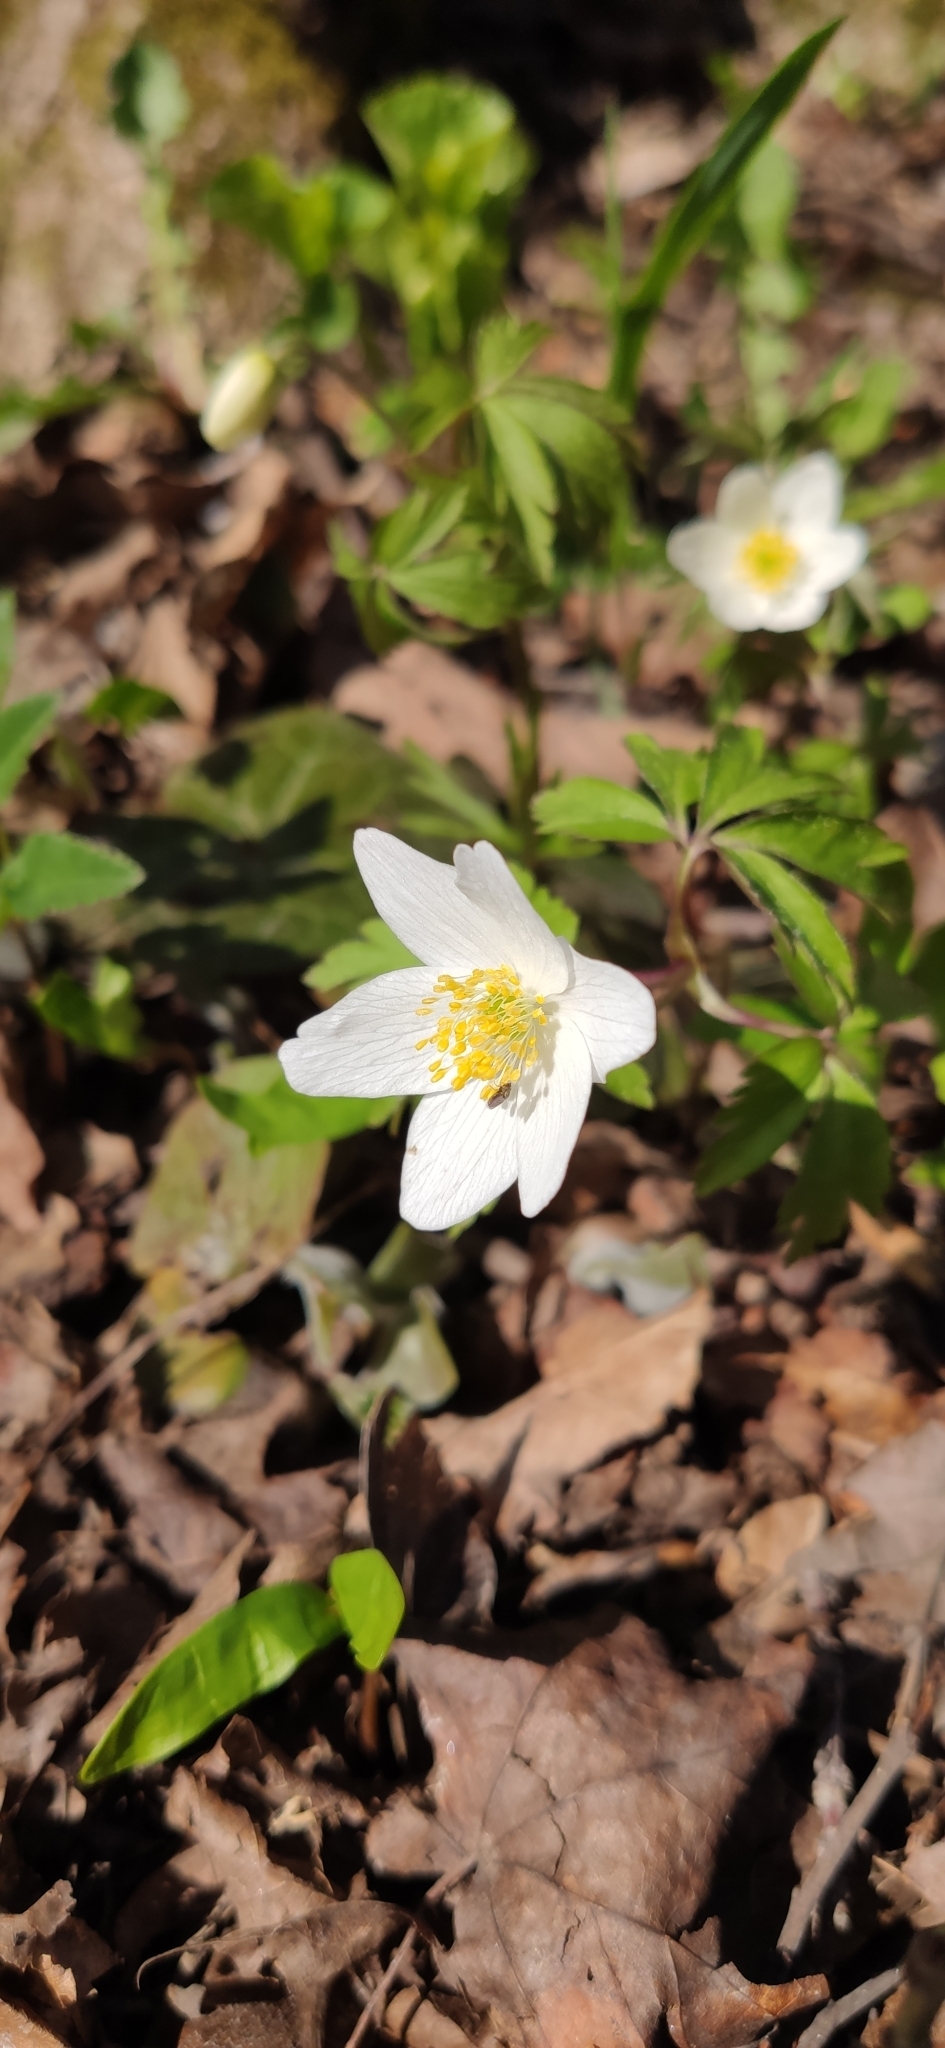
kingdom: Plantae
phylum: Tracheophyta
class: Magnoliopsida
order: Ranunculales
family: Ranunculaceae
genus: Anemone
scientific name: Anemone nemorosa
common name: Wood anemone
